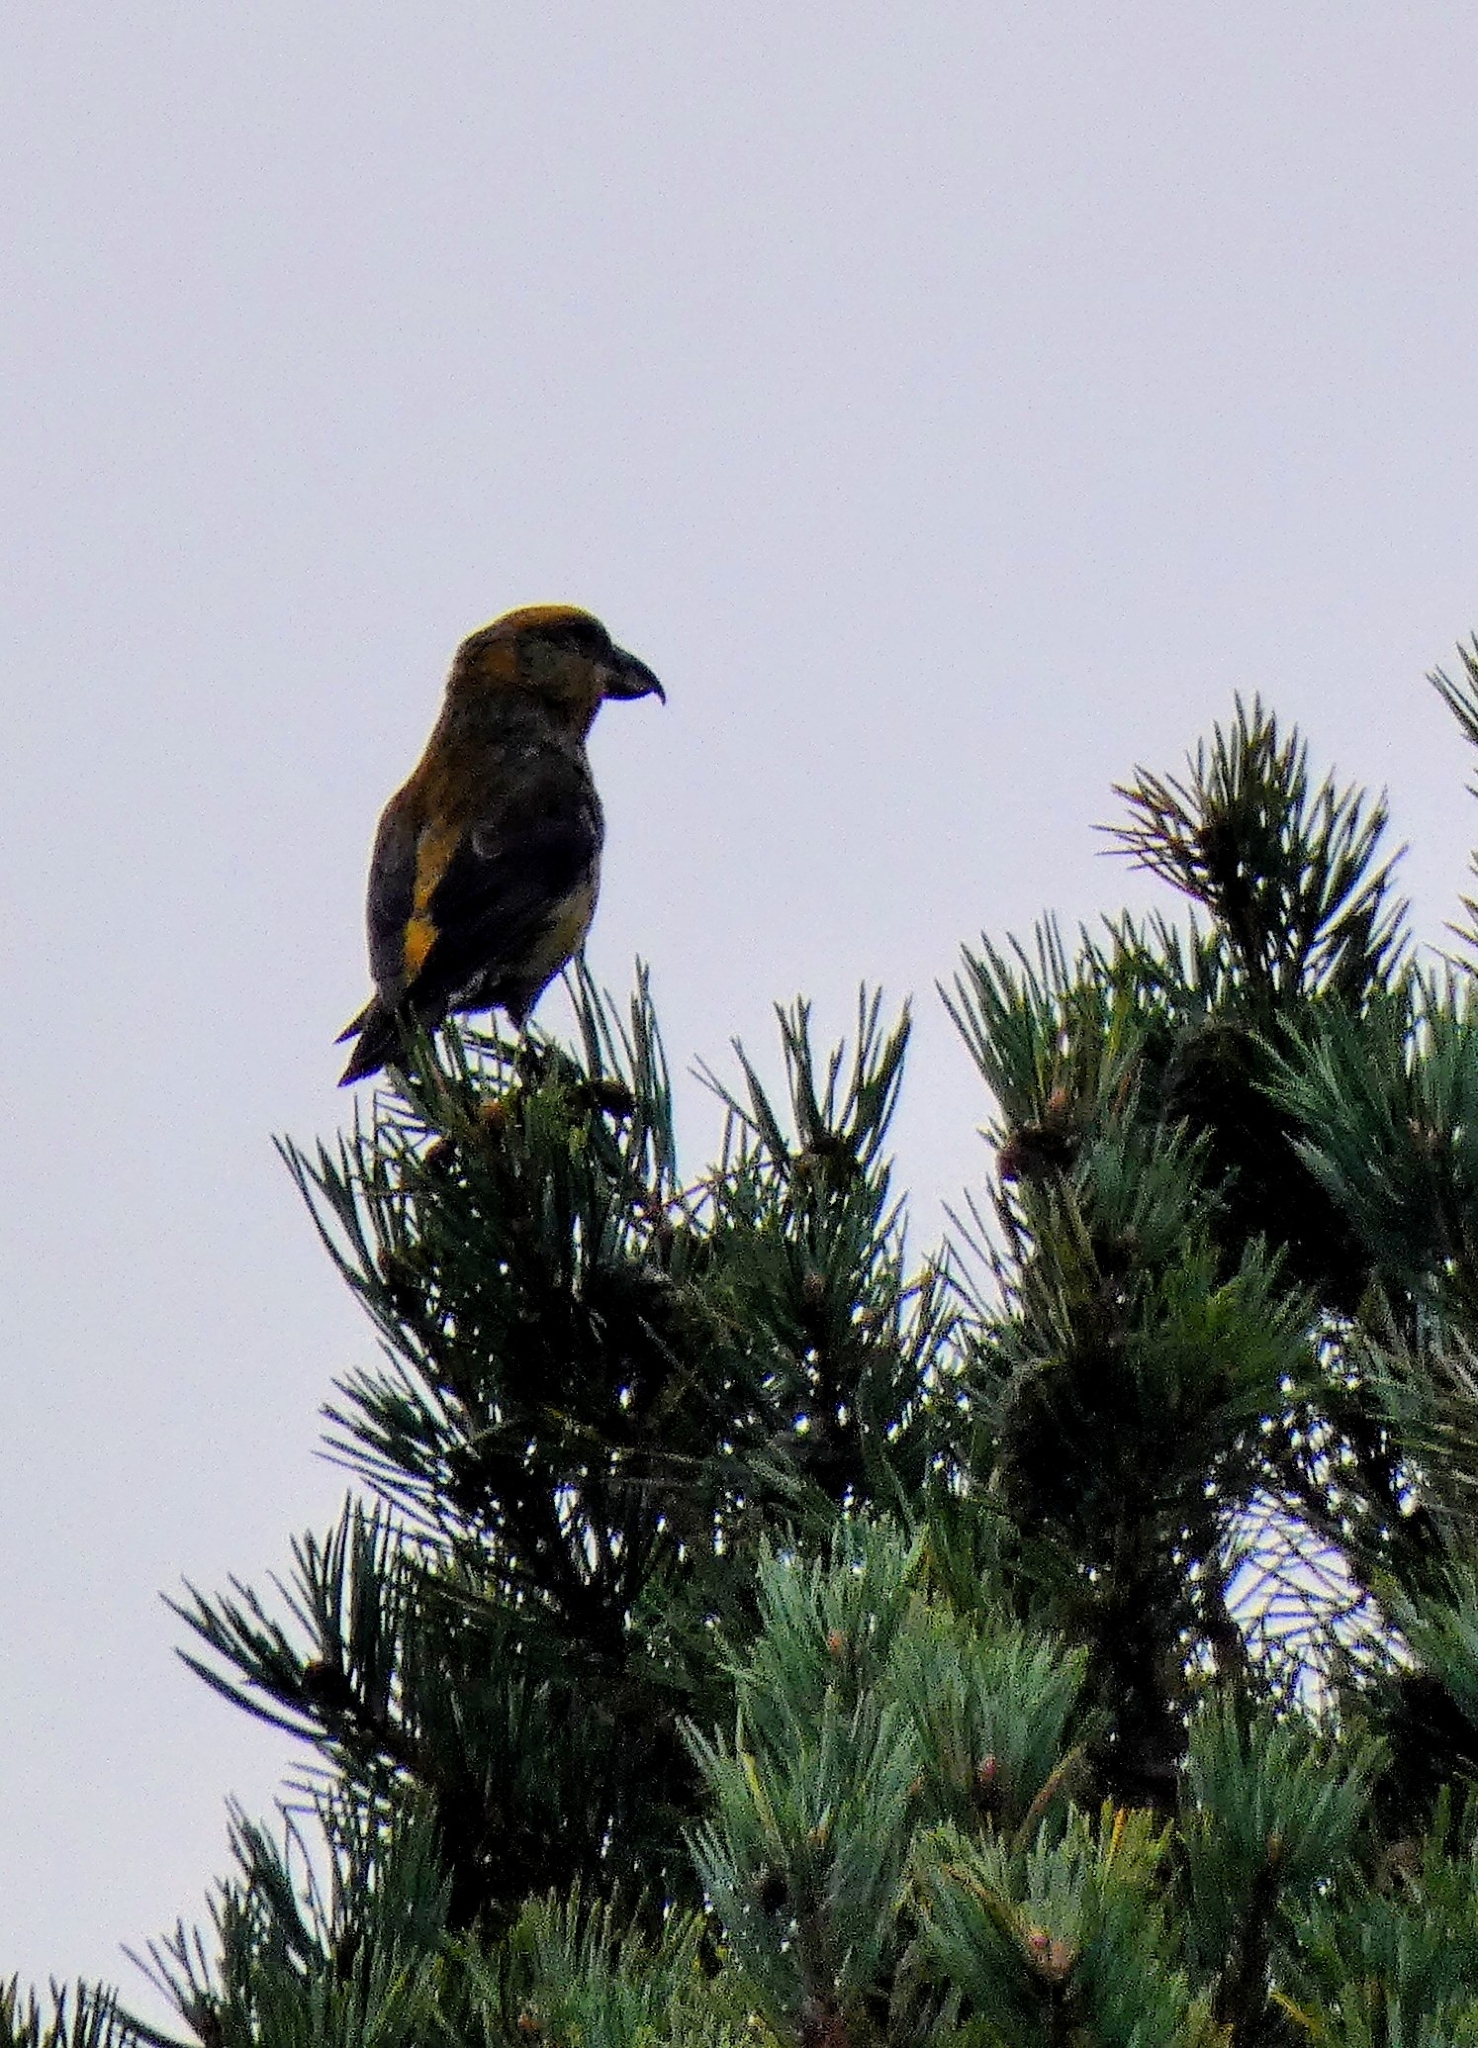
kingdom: Animalia
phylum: Chordata
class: Aves
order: Passeriformes
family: Fringillidae
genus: Loxia
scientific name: Loxia curvirostra
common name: Red crossbill
